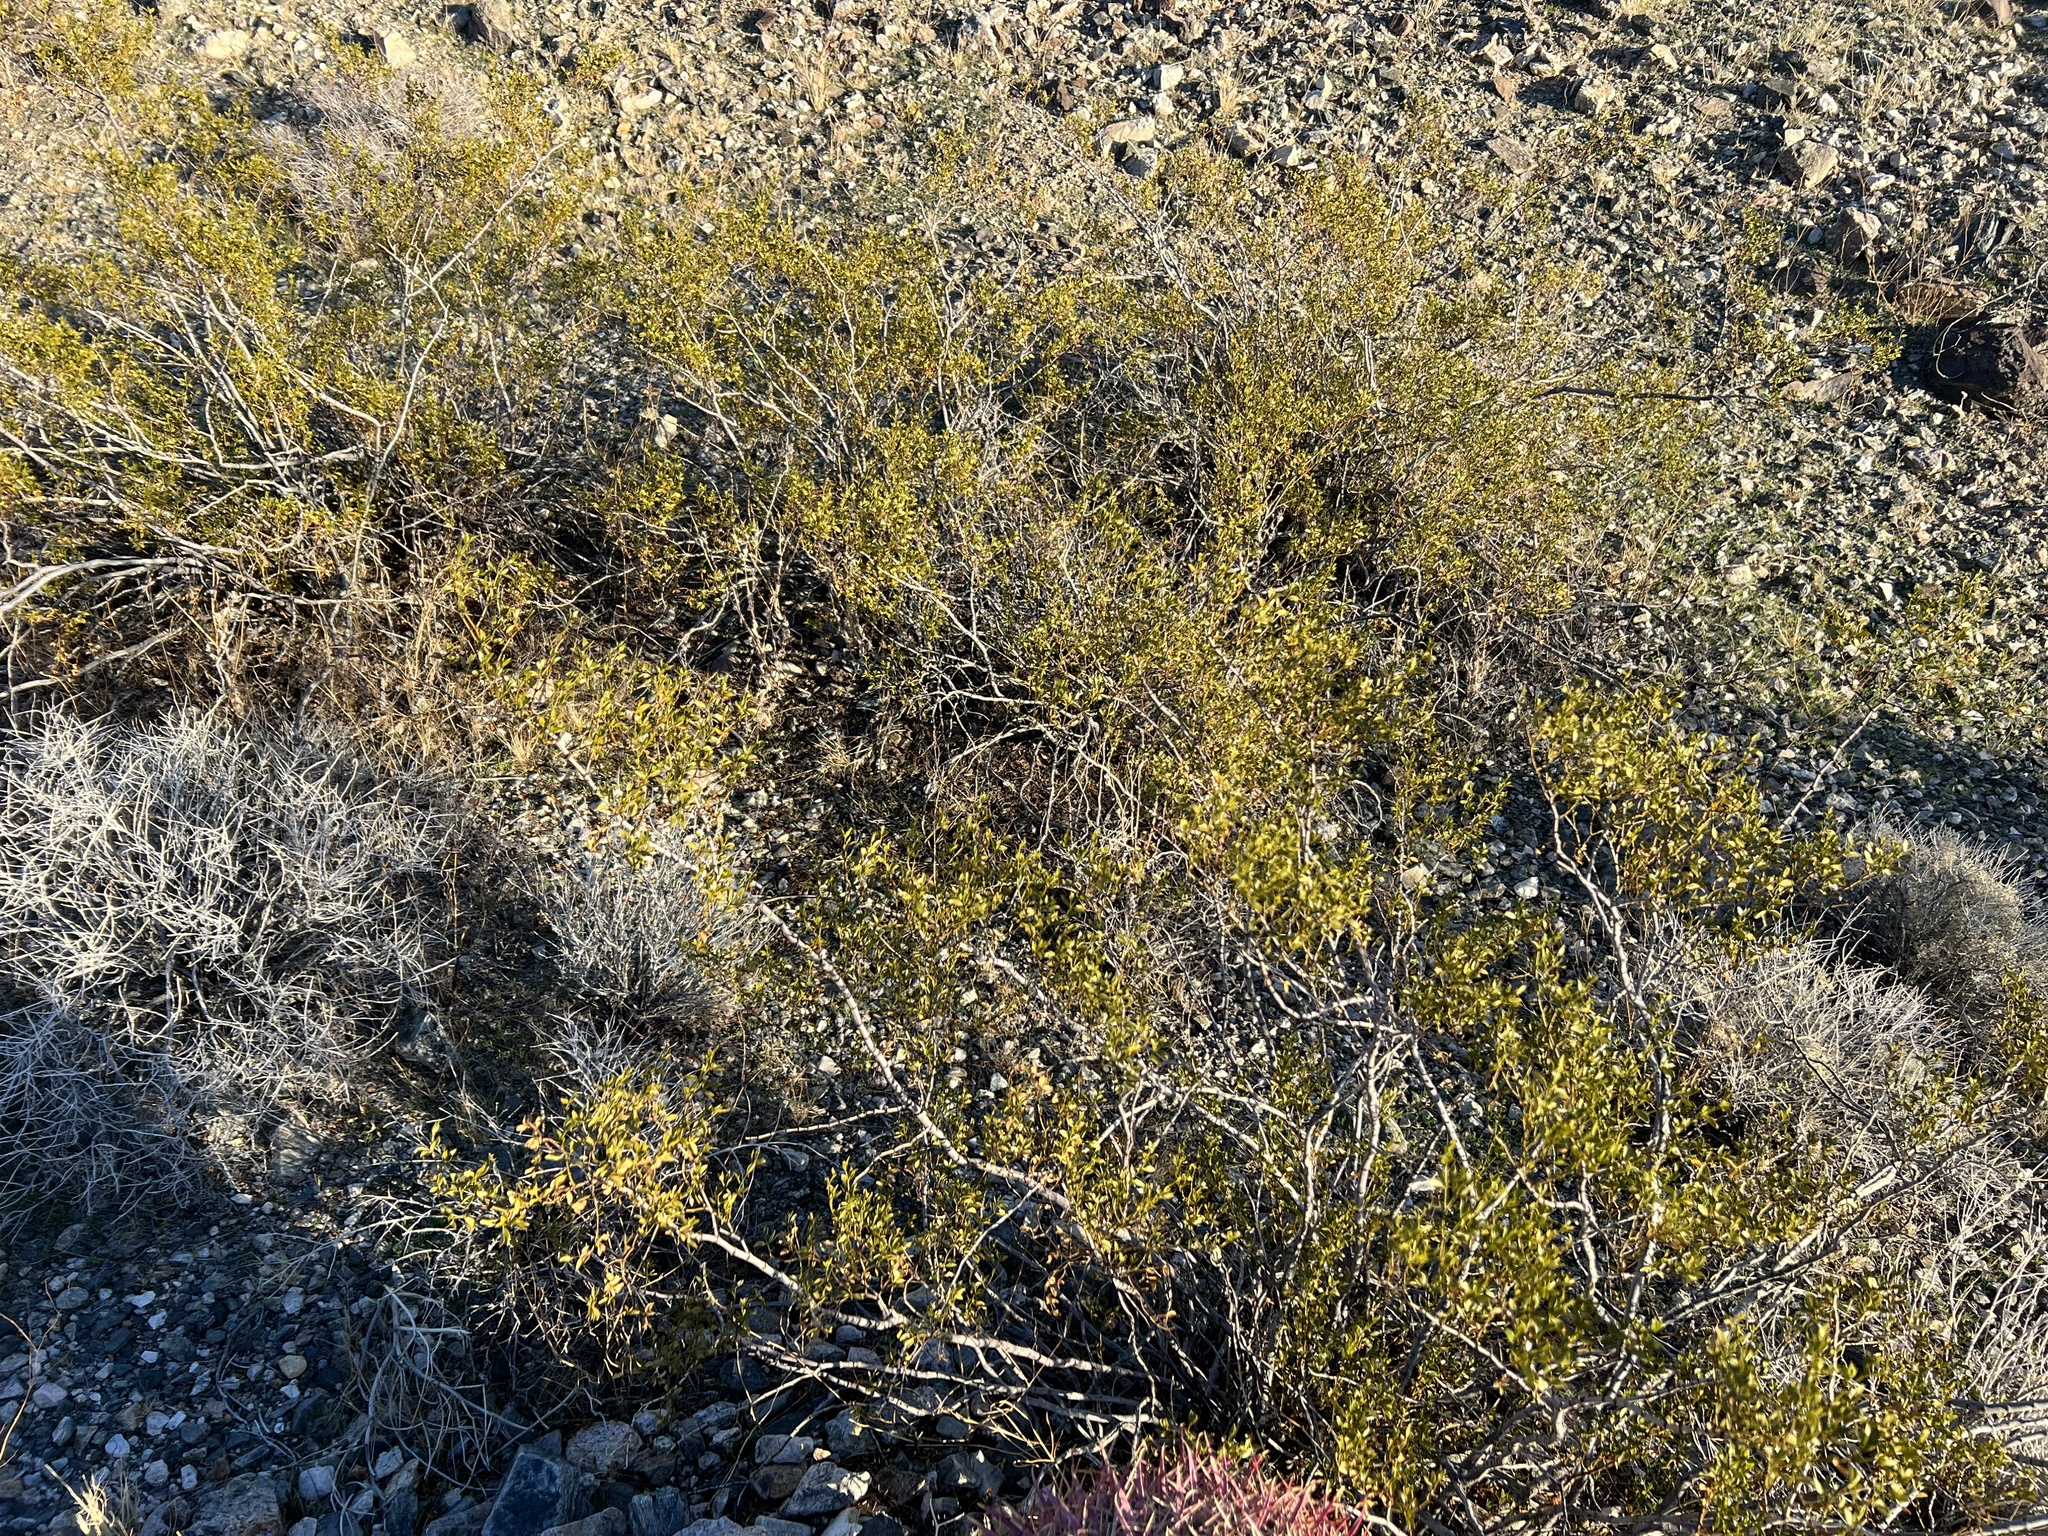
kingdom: Plantae
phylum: Tracheophyta
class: Magnoliopsida
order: Zygophyllales
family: Zygophyllaceae
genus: Larrea
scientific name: Larrea tridentata
